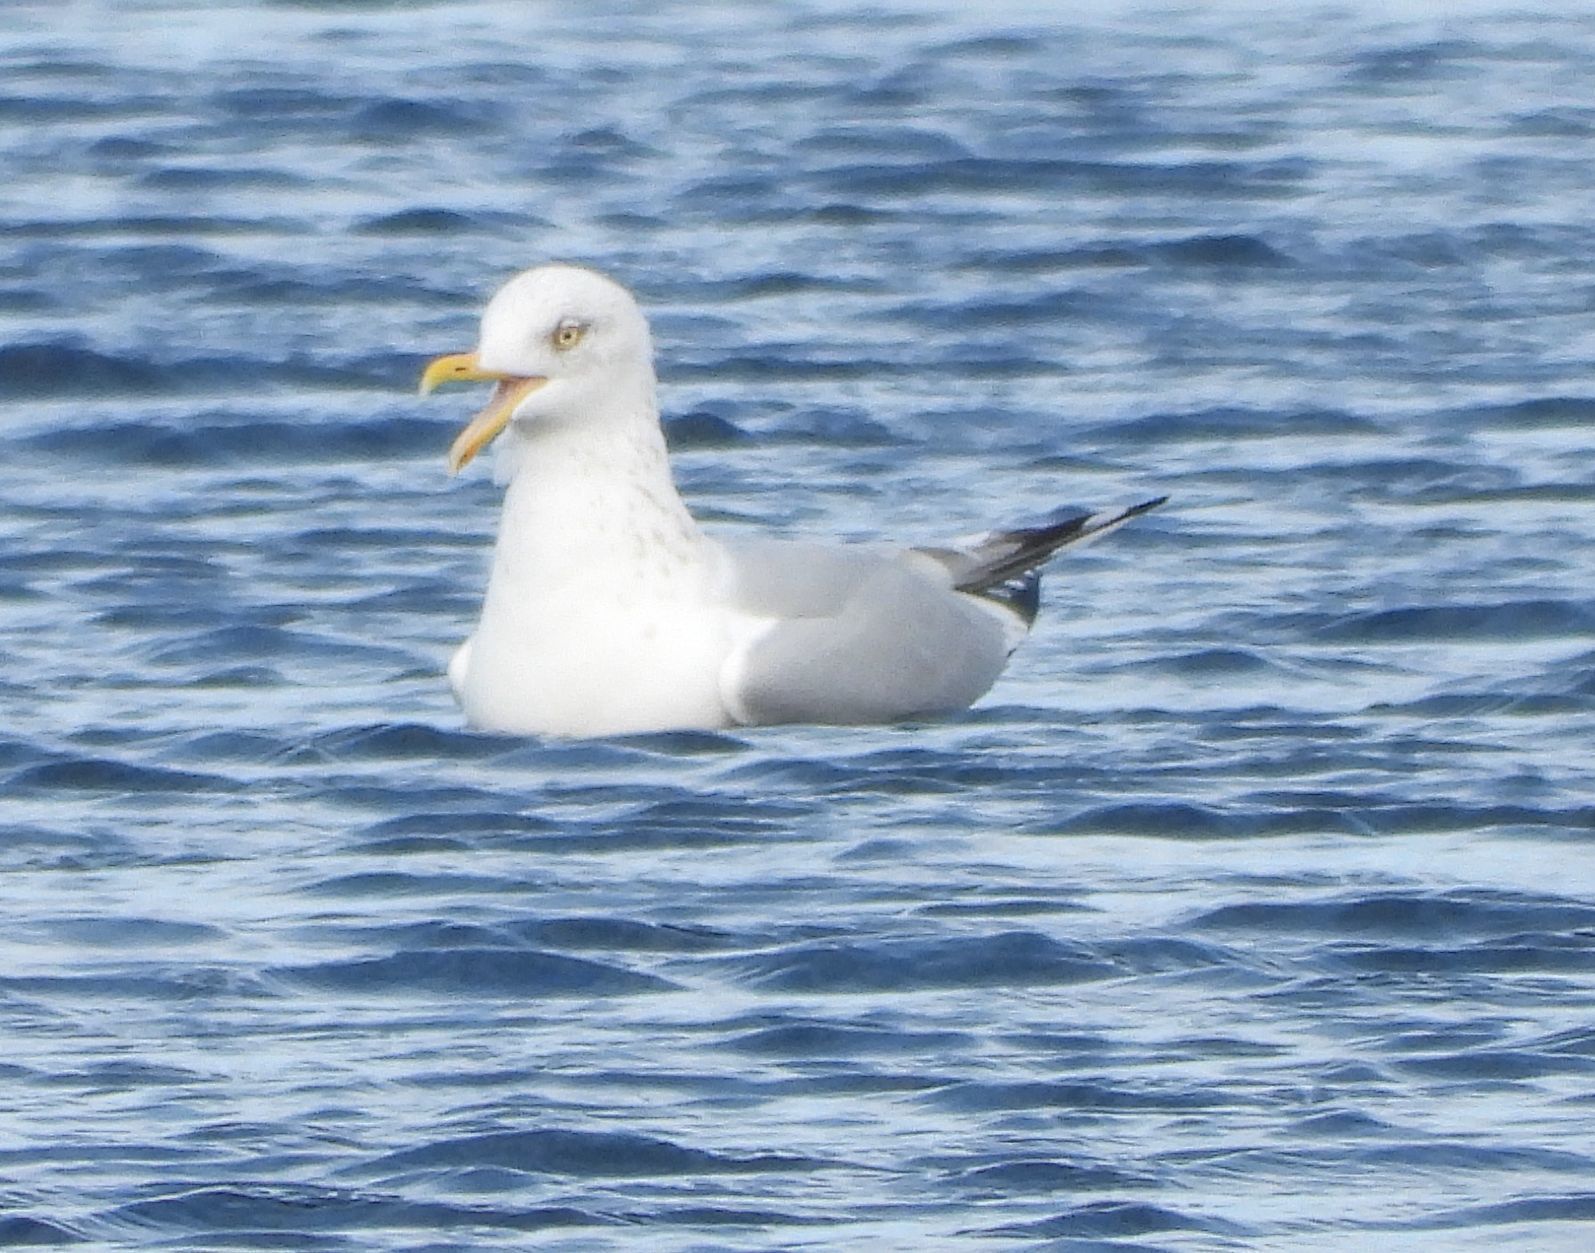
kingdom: Animalia
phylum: Chordata
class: Aves
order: Charadriiformes
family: Laridae
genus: Larus
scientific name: Larus argentatus
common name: Herring gull
